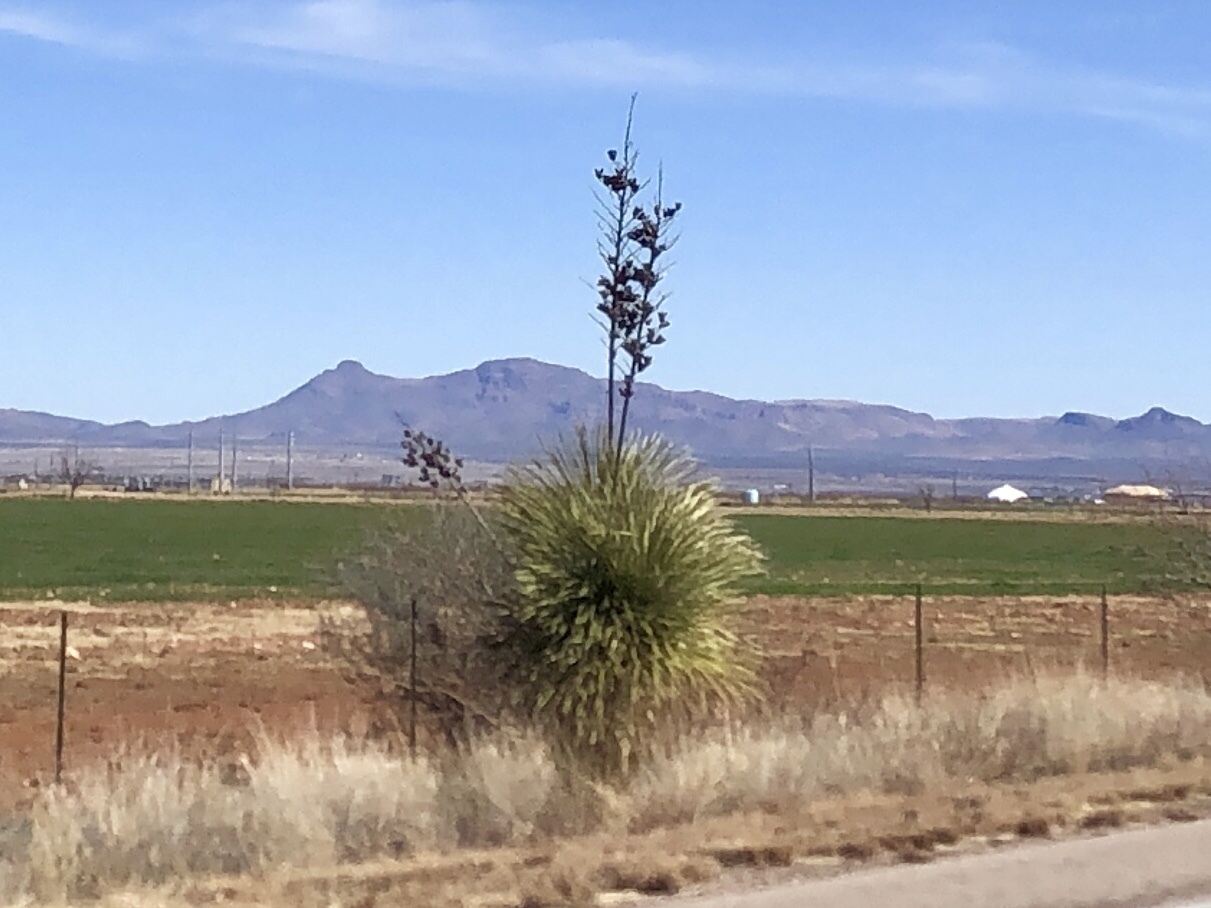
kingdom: Plantae
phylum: Tracheophyta
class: Liliopsida
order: Asparagales
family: Asparagaceae
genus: Yucca
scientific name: Yucca elata
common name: Palmella
